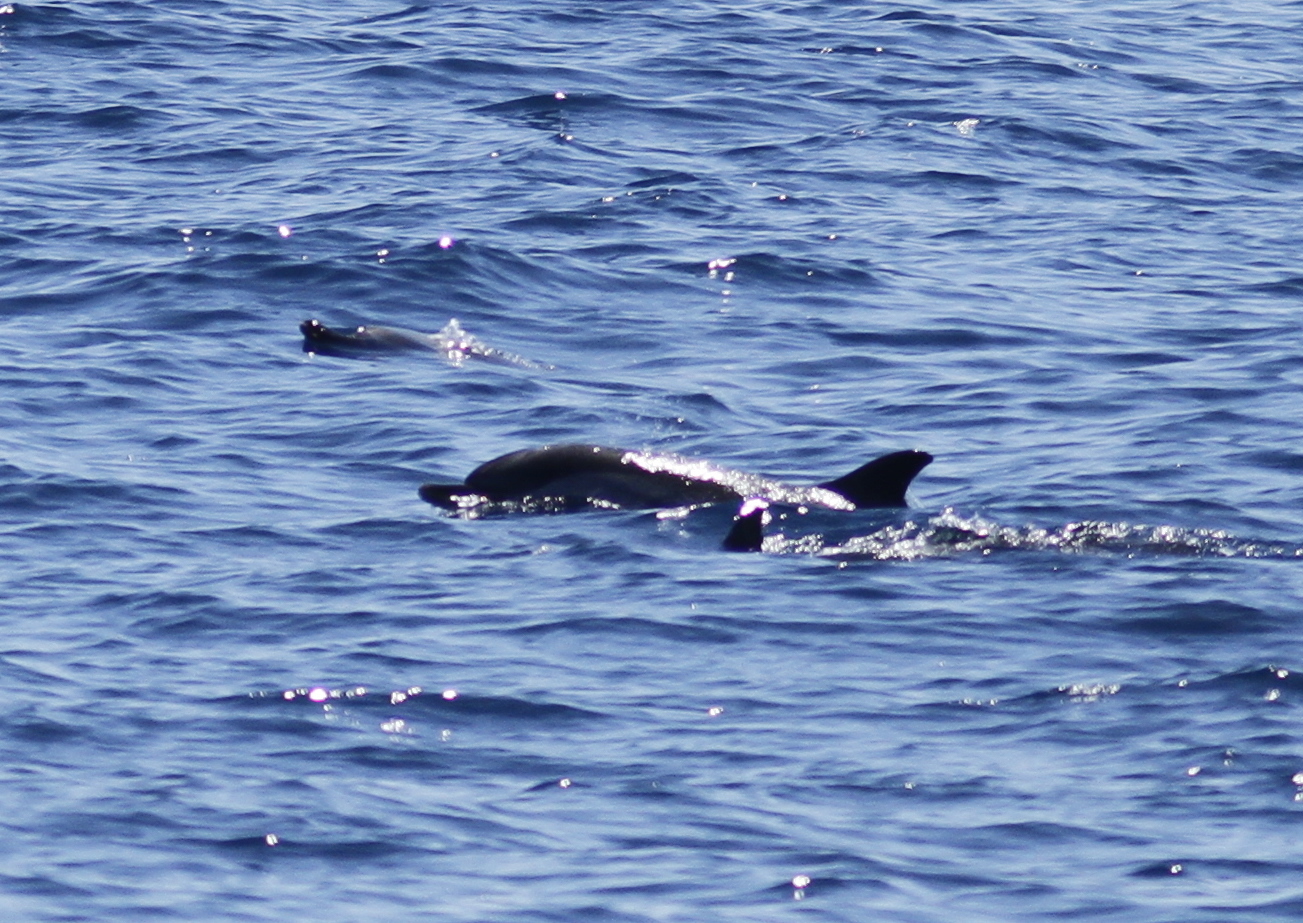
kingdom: Animalia
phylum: Chordata
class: Mammalia
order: Cetacea
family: Delphinidae
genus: Stenella
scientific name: Stenella coeruleoalba
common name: Striped dolphin
